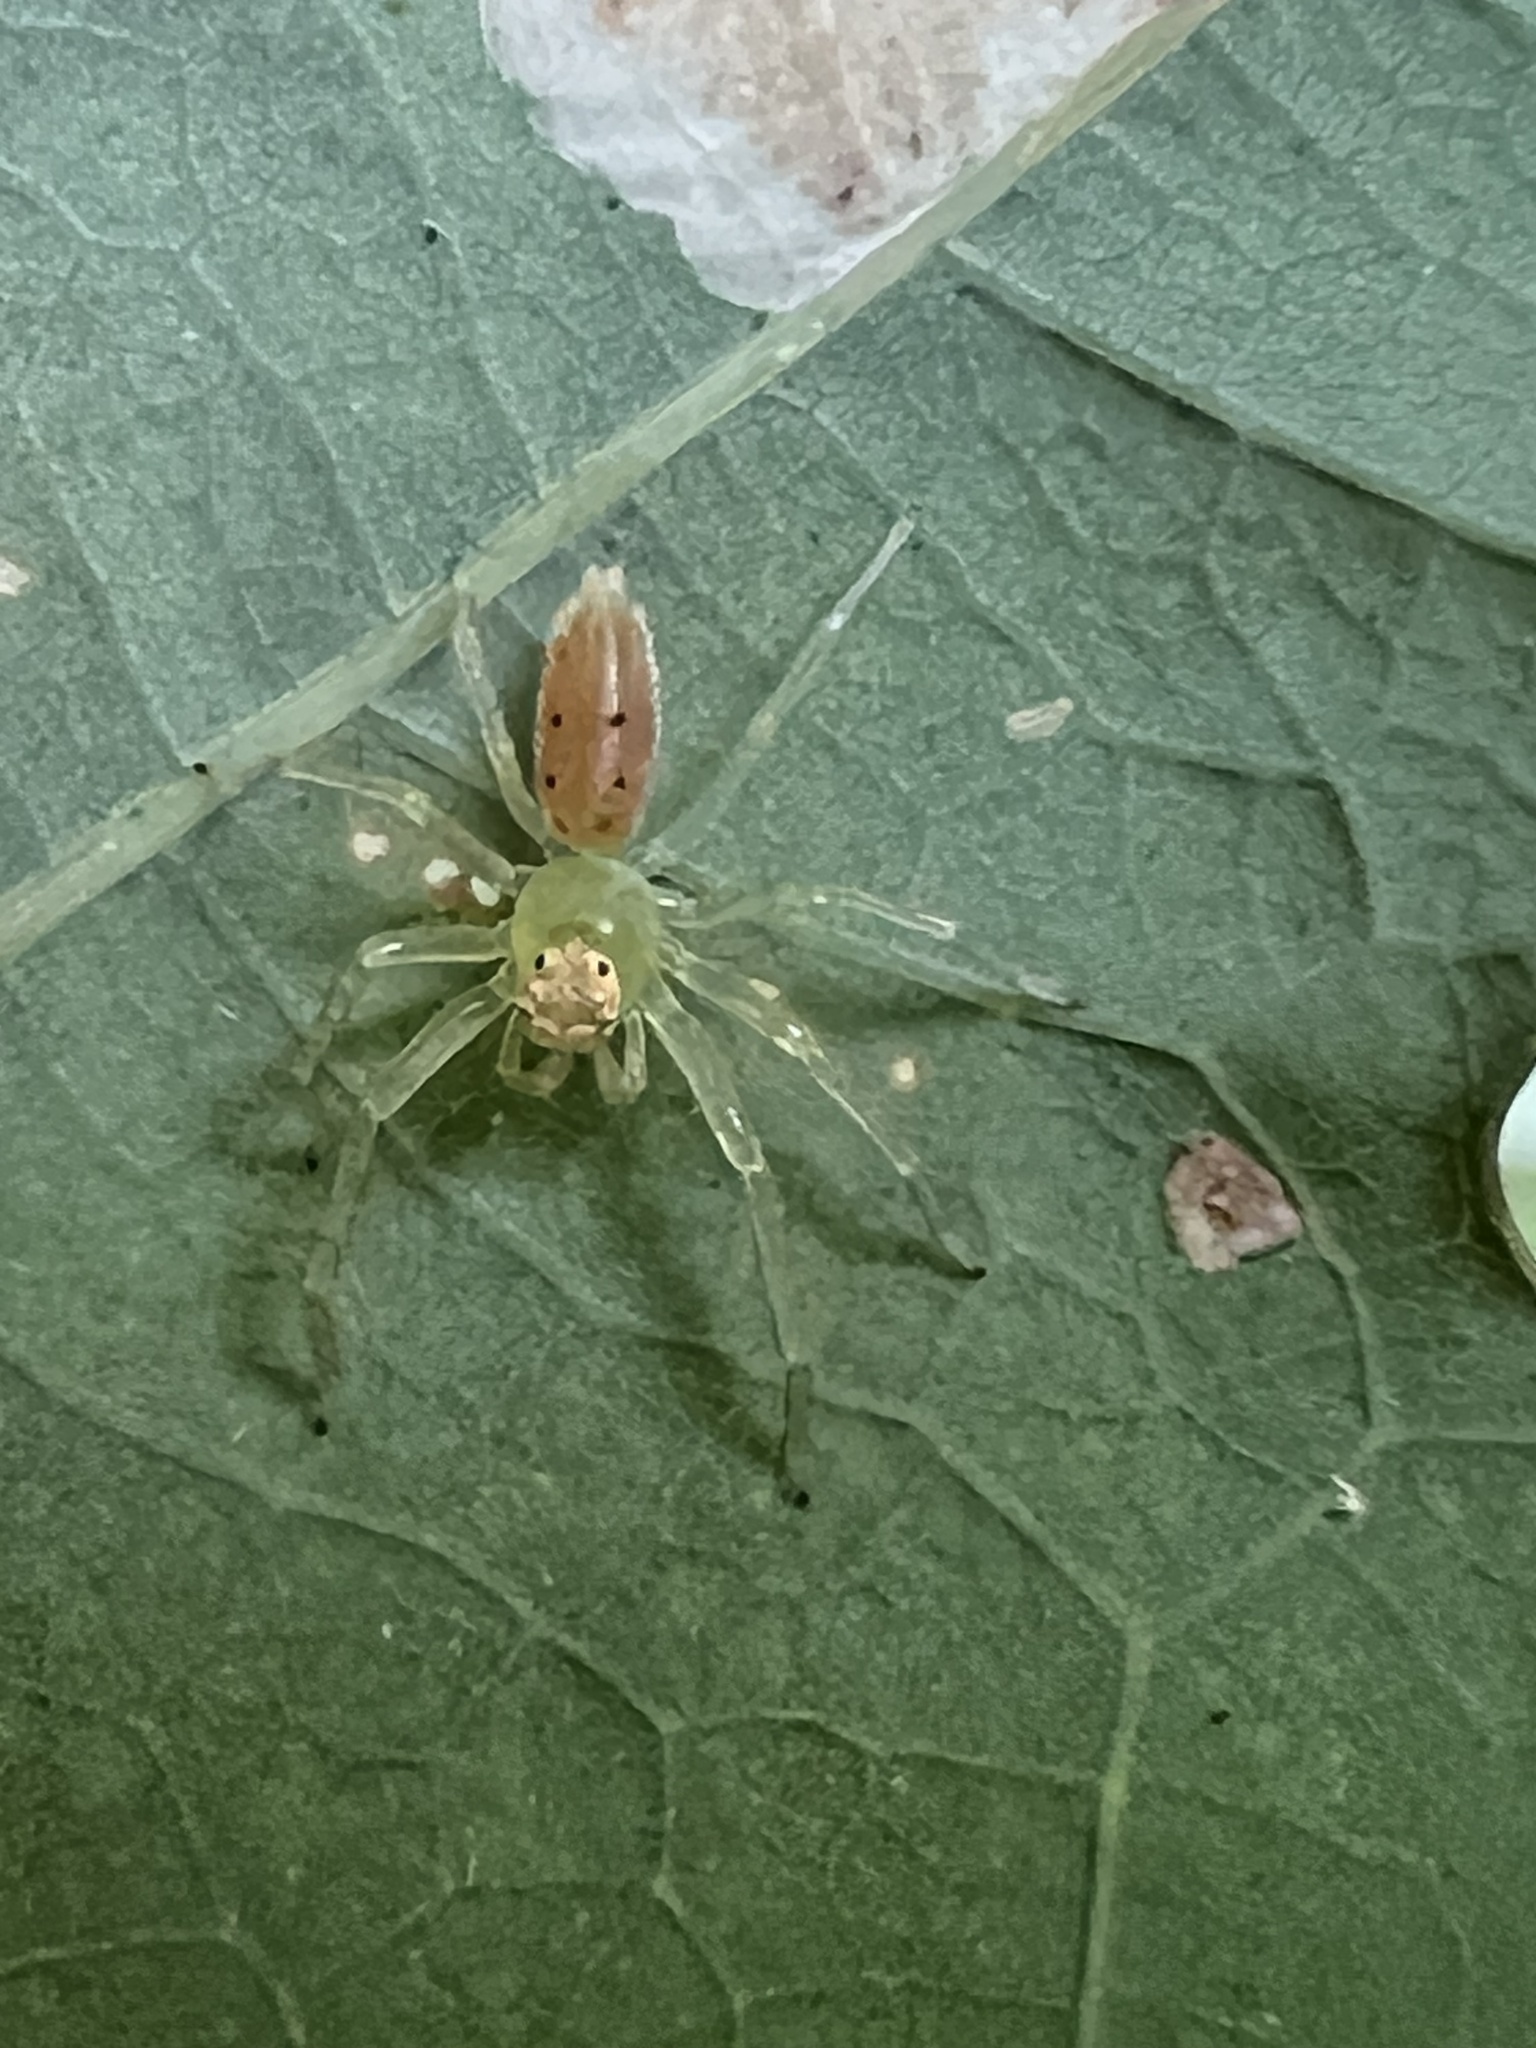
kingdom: Animalia
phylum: Arthropoda
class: Arachnida
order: Araneae
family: Salticidae
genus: Lyssomanes
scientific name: Lyssomanes viridis
